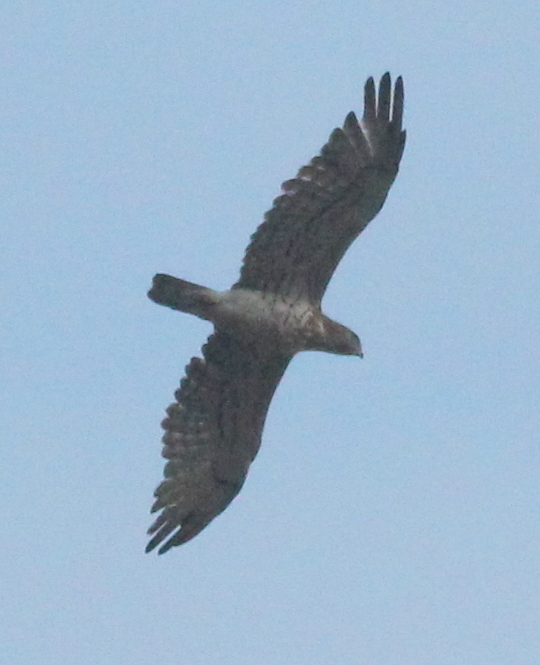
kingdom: Animalia
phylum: Chordata
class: Aves
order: Accipitriformes
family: Accipitridae
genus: Circaetus
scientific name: Circaetus gallicus
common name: Short-toed snake eagle
